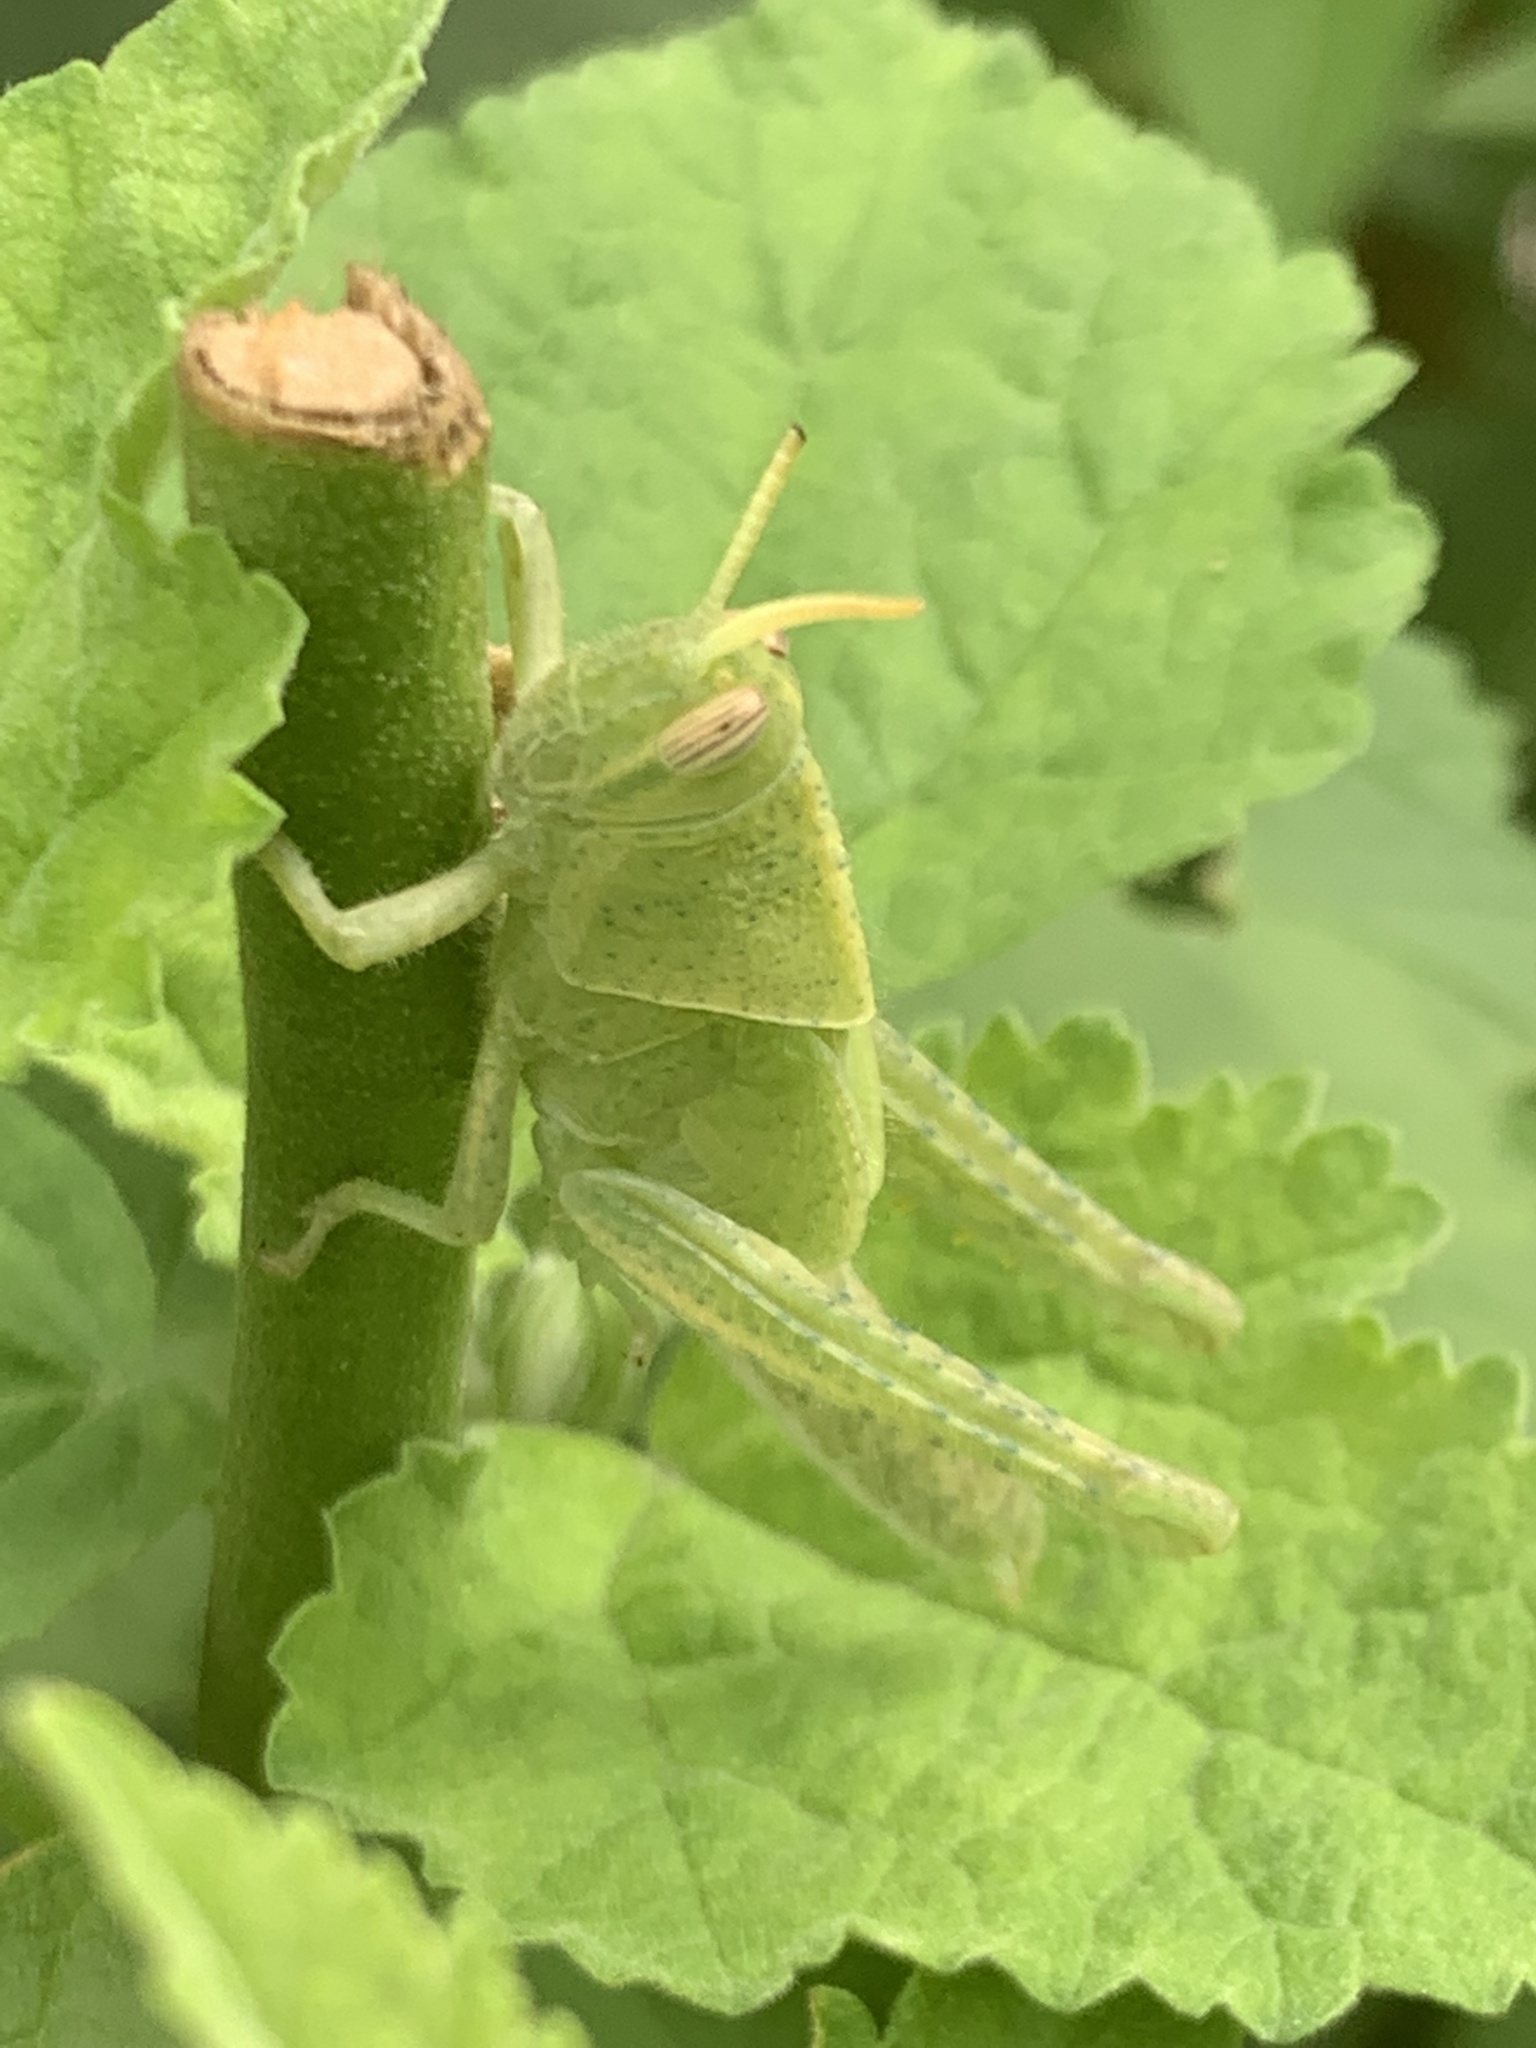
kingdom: Animalia
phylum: Arthropoda
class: Insecta
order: Orthoptera
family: Acrididae
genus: Schistocerca
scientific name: Schistocerca flavofasciata
